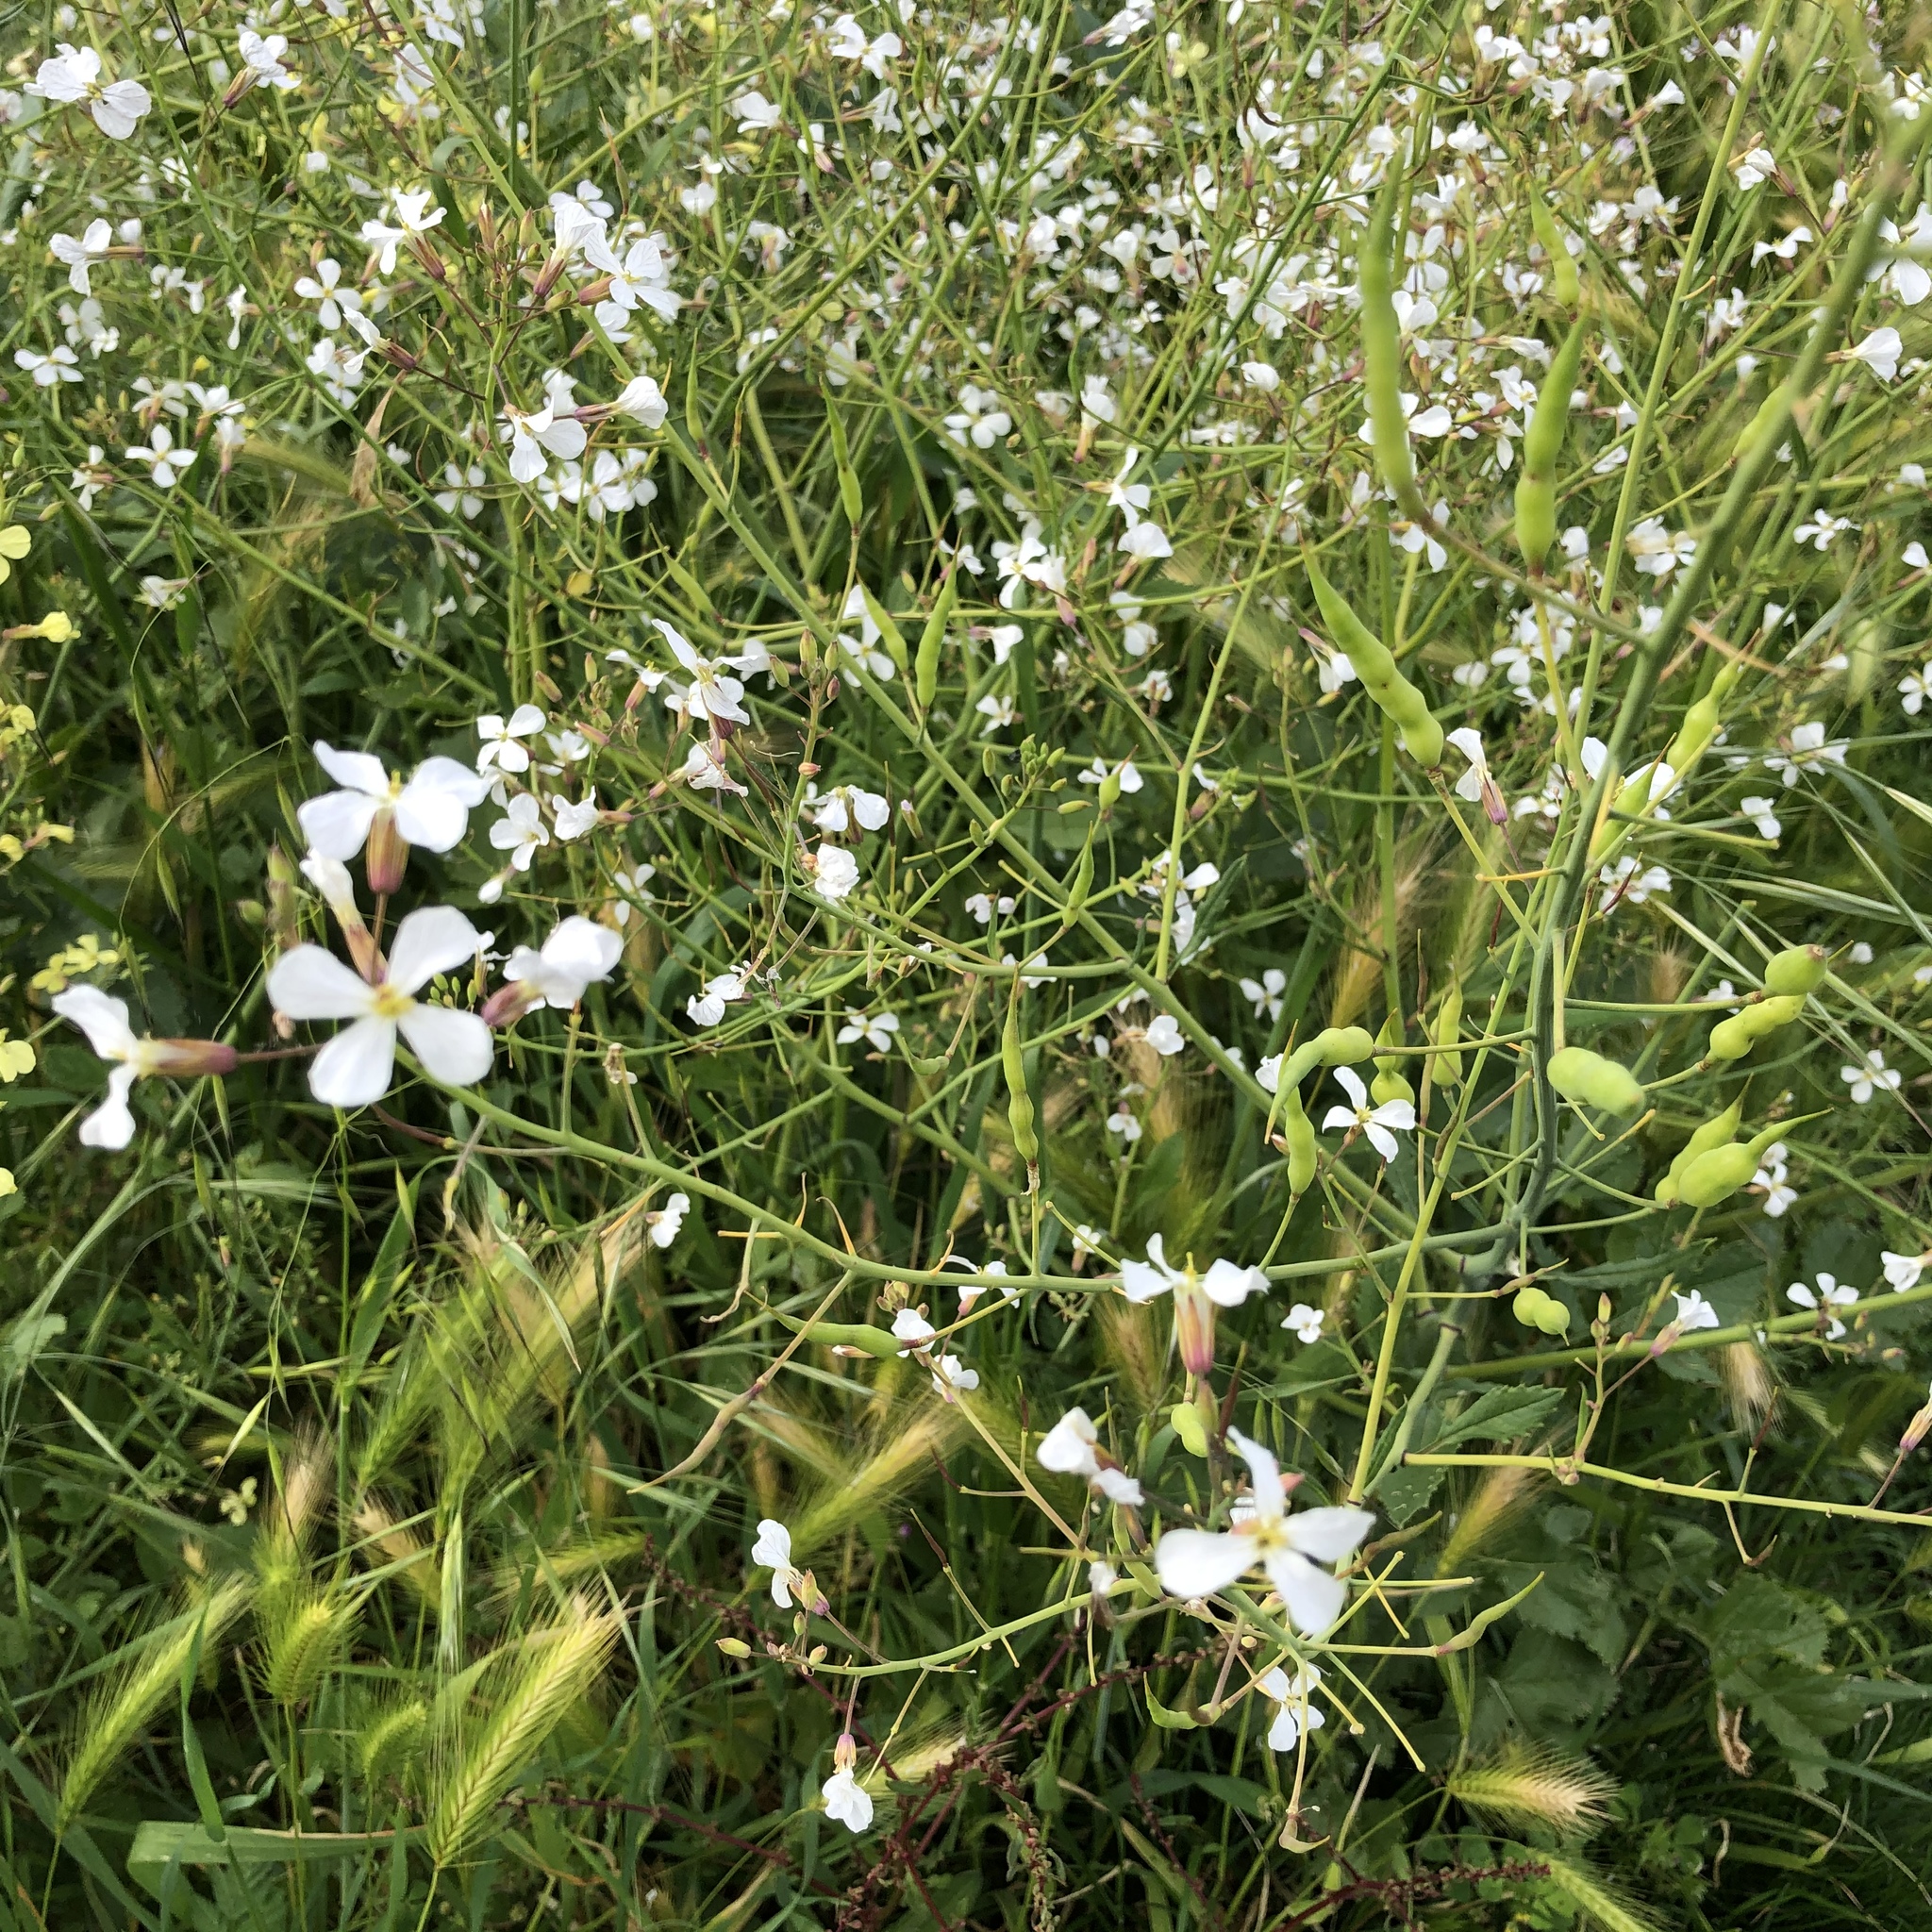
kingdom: Plantae
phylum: Tracheophyta
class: Magnoliopsida
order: Brassicales
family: Brassicaceae
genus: Raphanus
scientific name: Raphanus raphanistrum
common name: Wild radish
